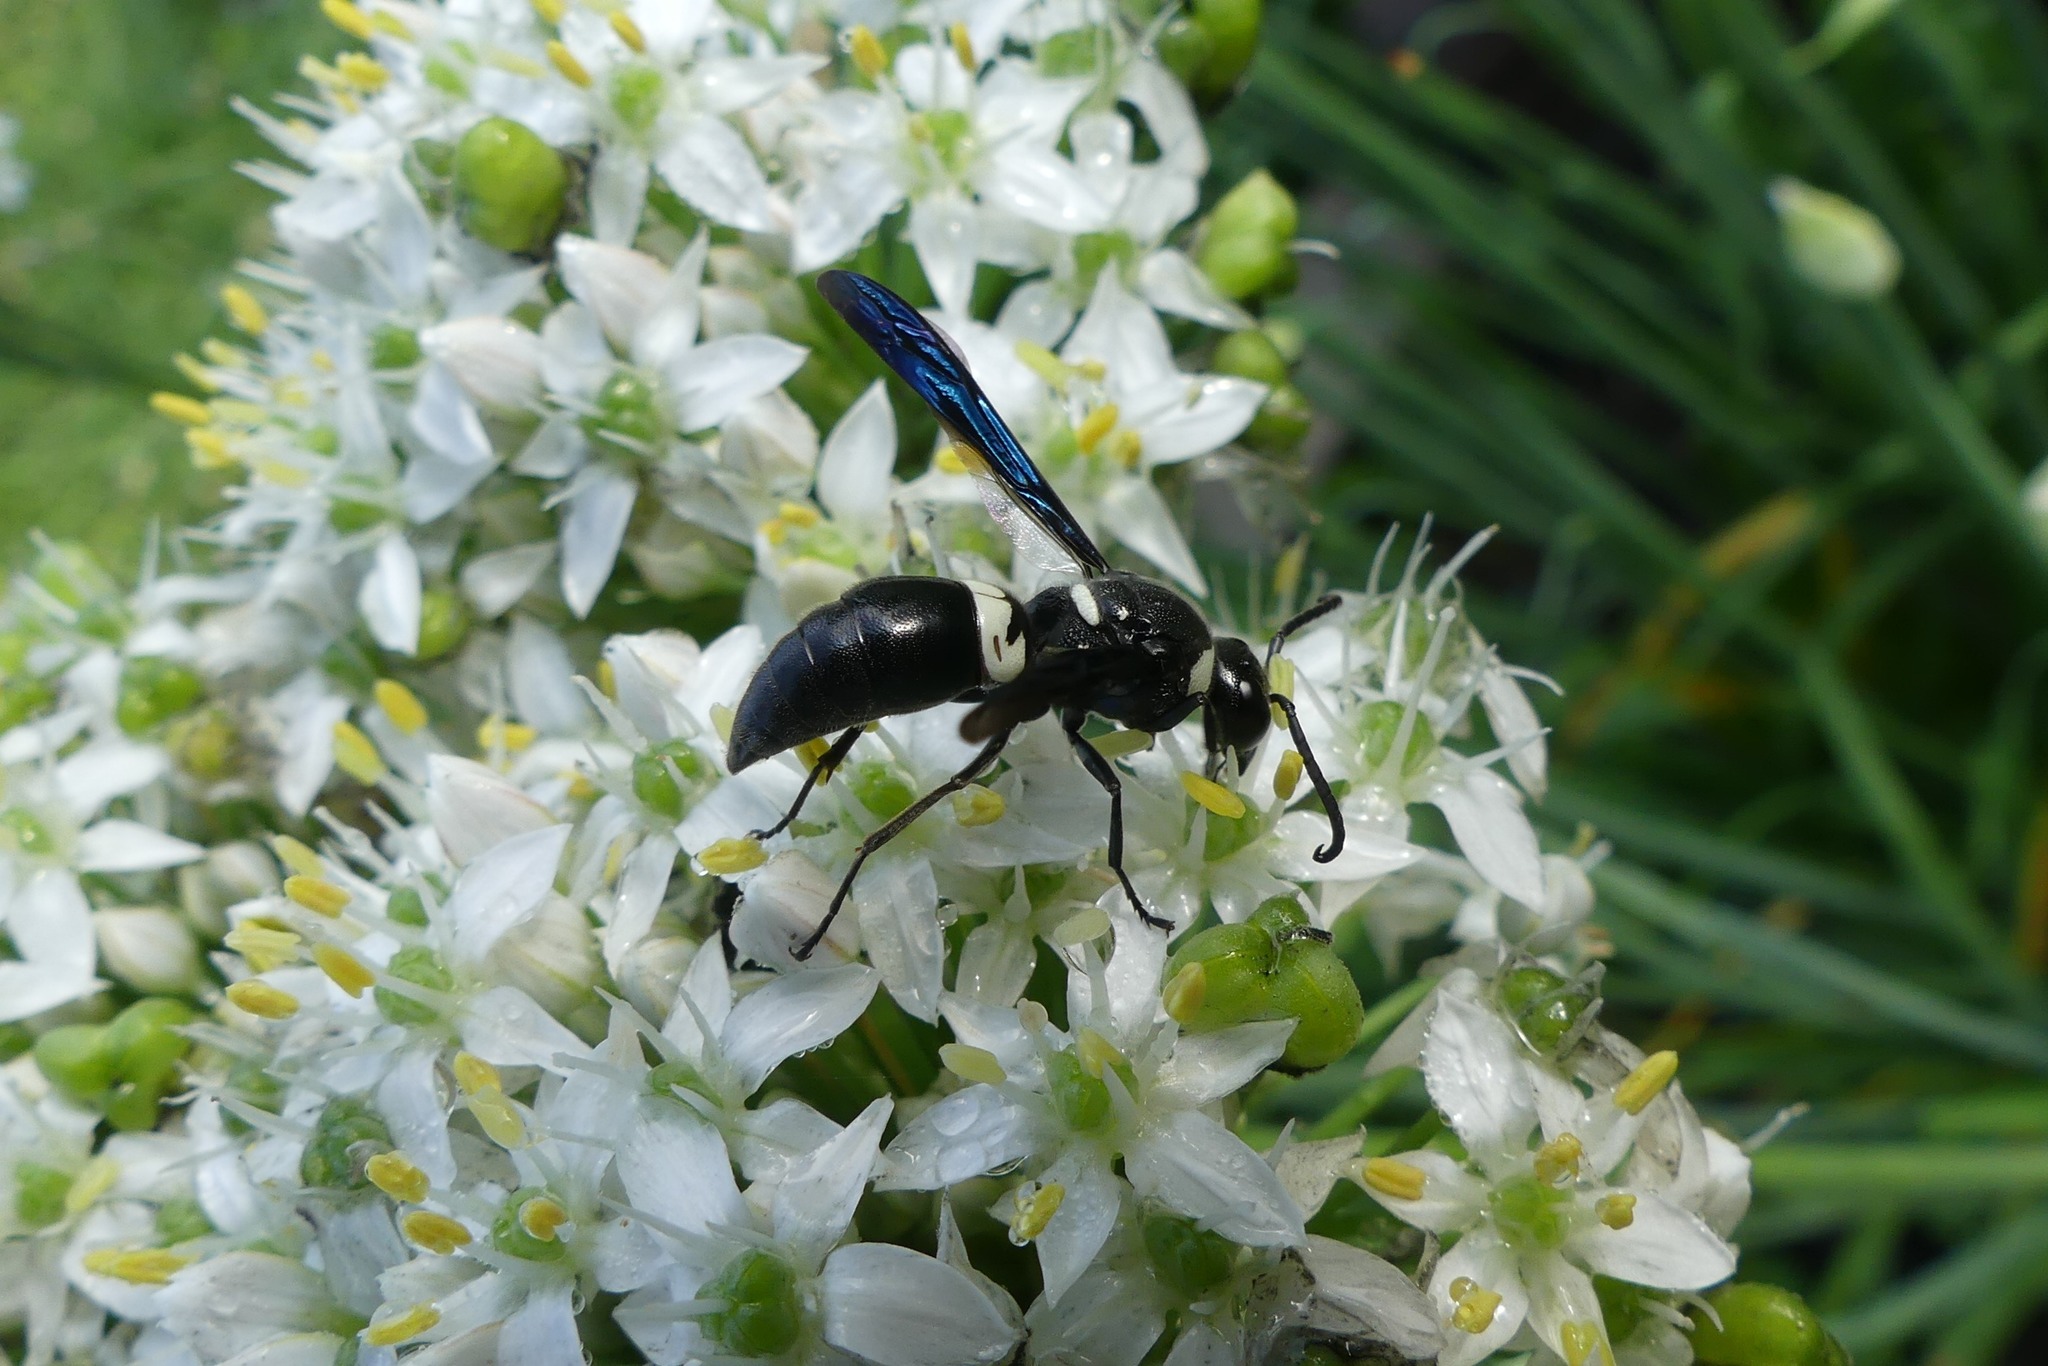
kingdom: Animalia
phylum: Arthropoda
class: Insecta
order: Hymenoptera
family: Eumenidae
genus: Monobia
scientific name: Monobia quadridens
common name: Four-toothed mason wasp
